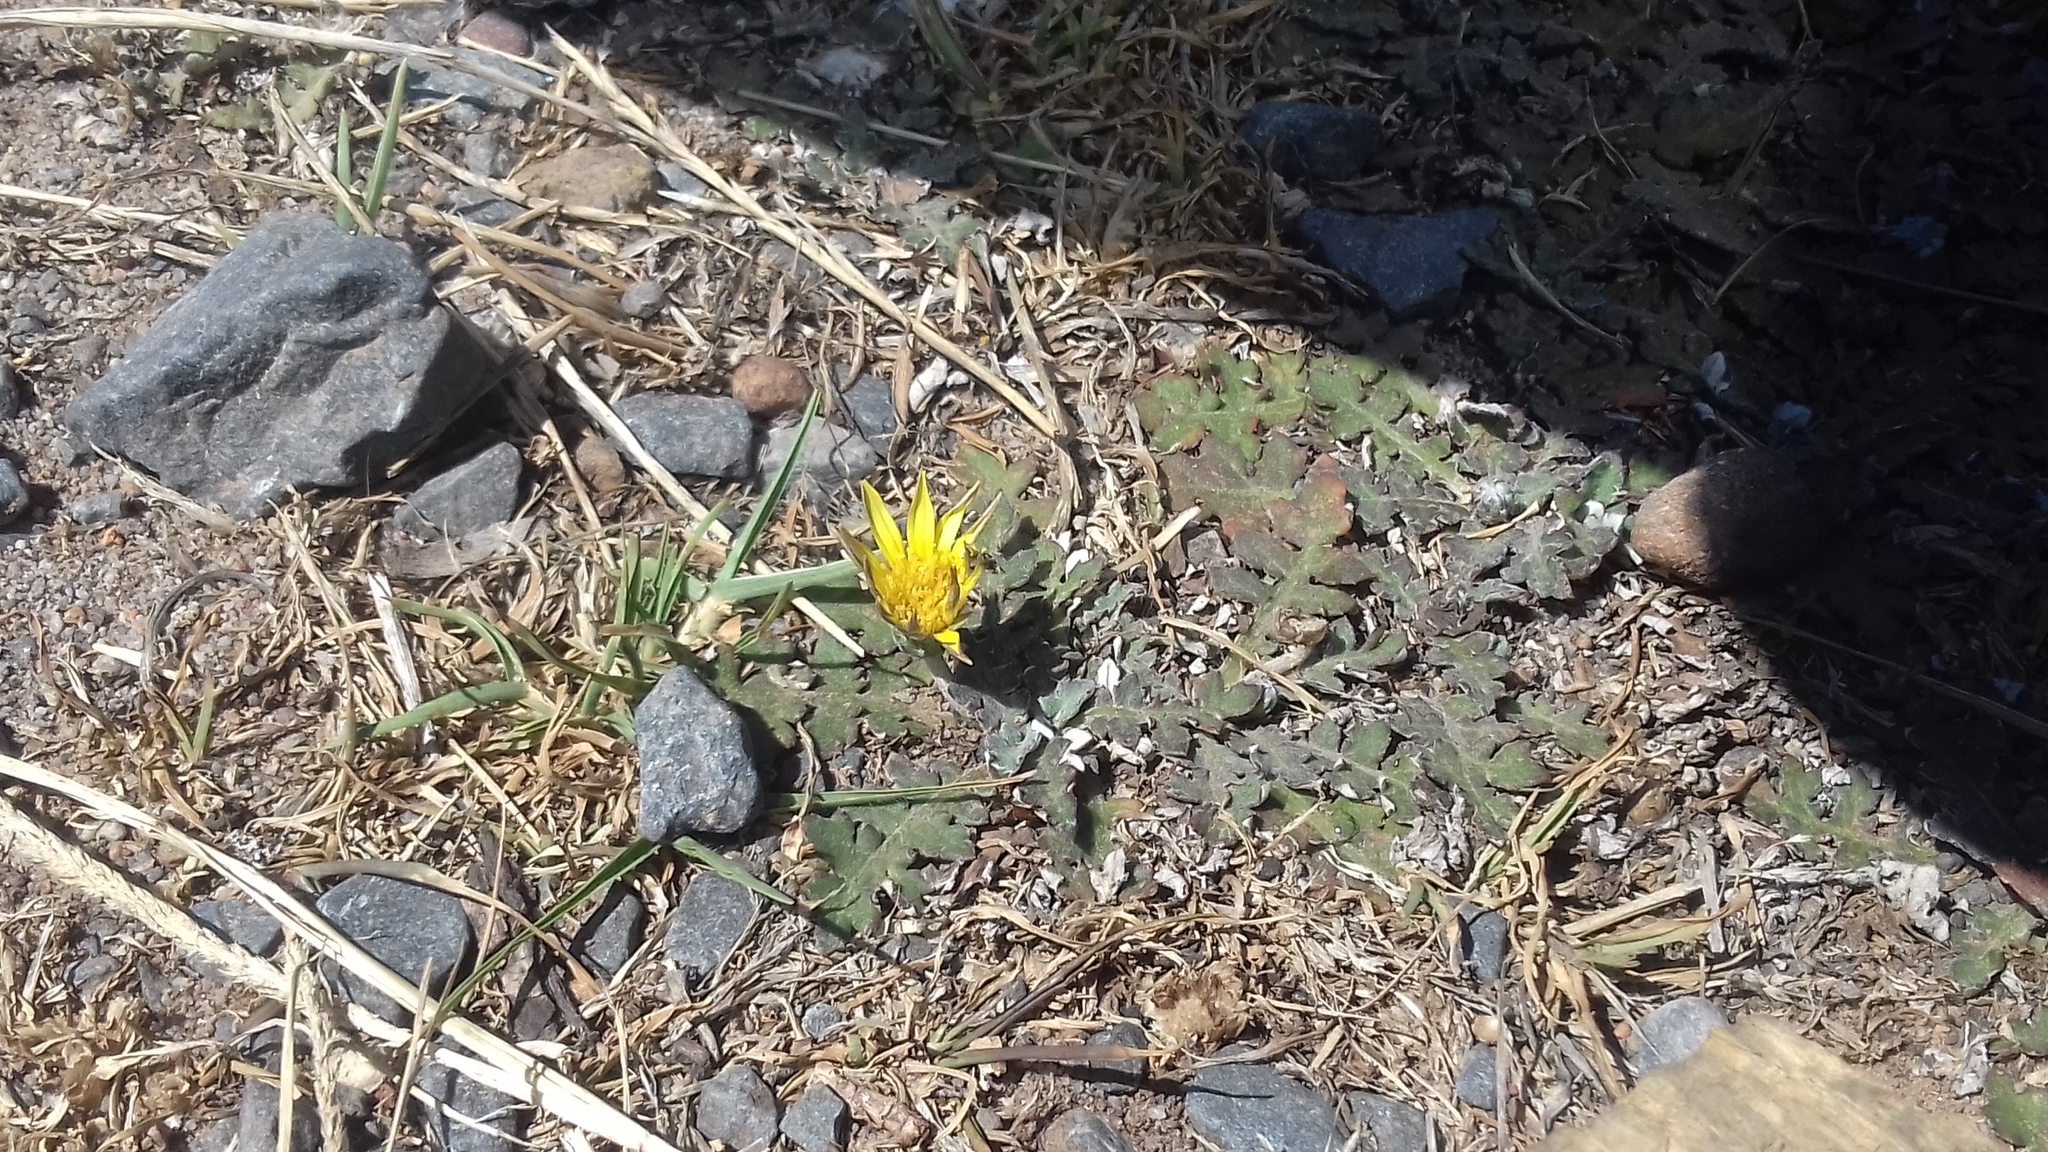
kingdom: Plantae
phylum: Tracheophyta
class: Magnoliopsida
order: Asterales
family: Asteraceae
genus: Arctotheca
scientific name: Arctotheca prostrata
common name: Capeweed
